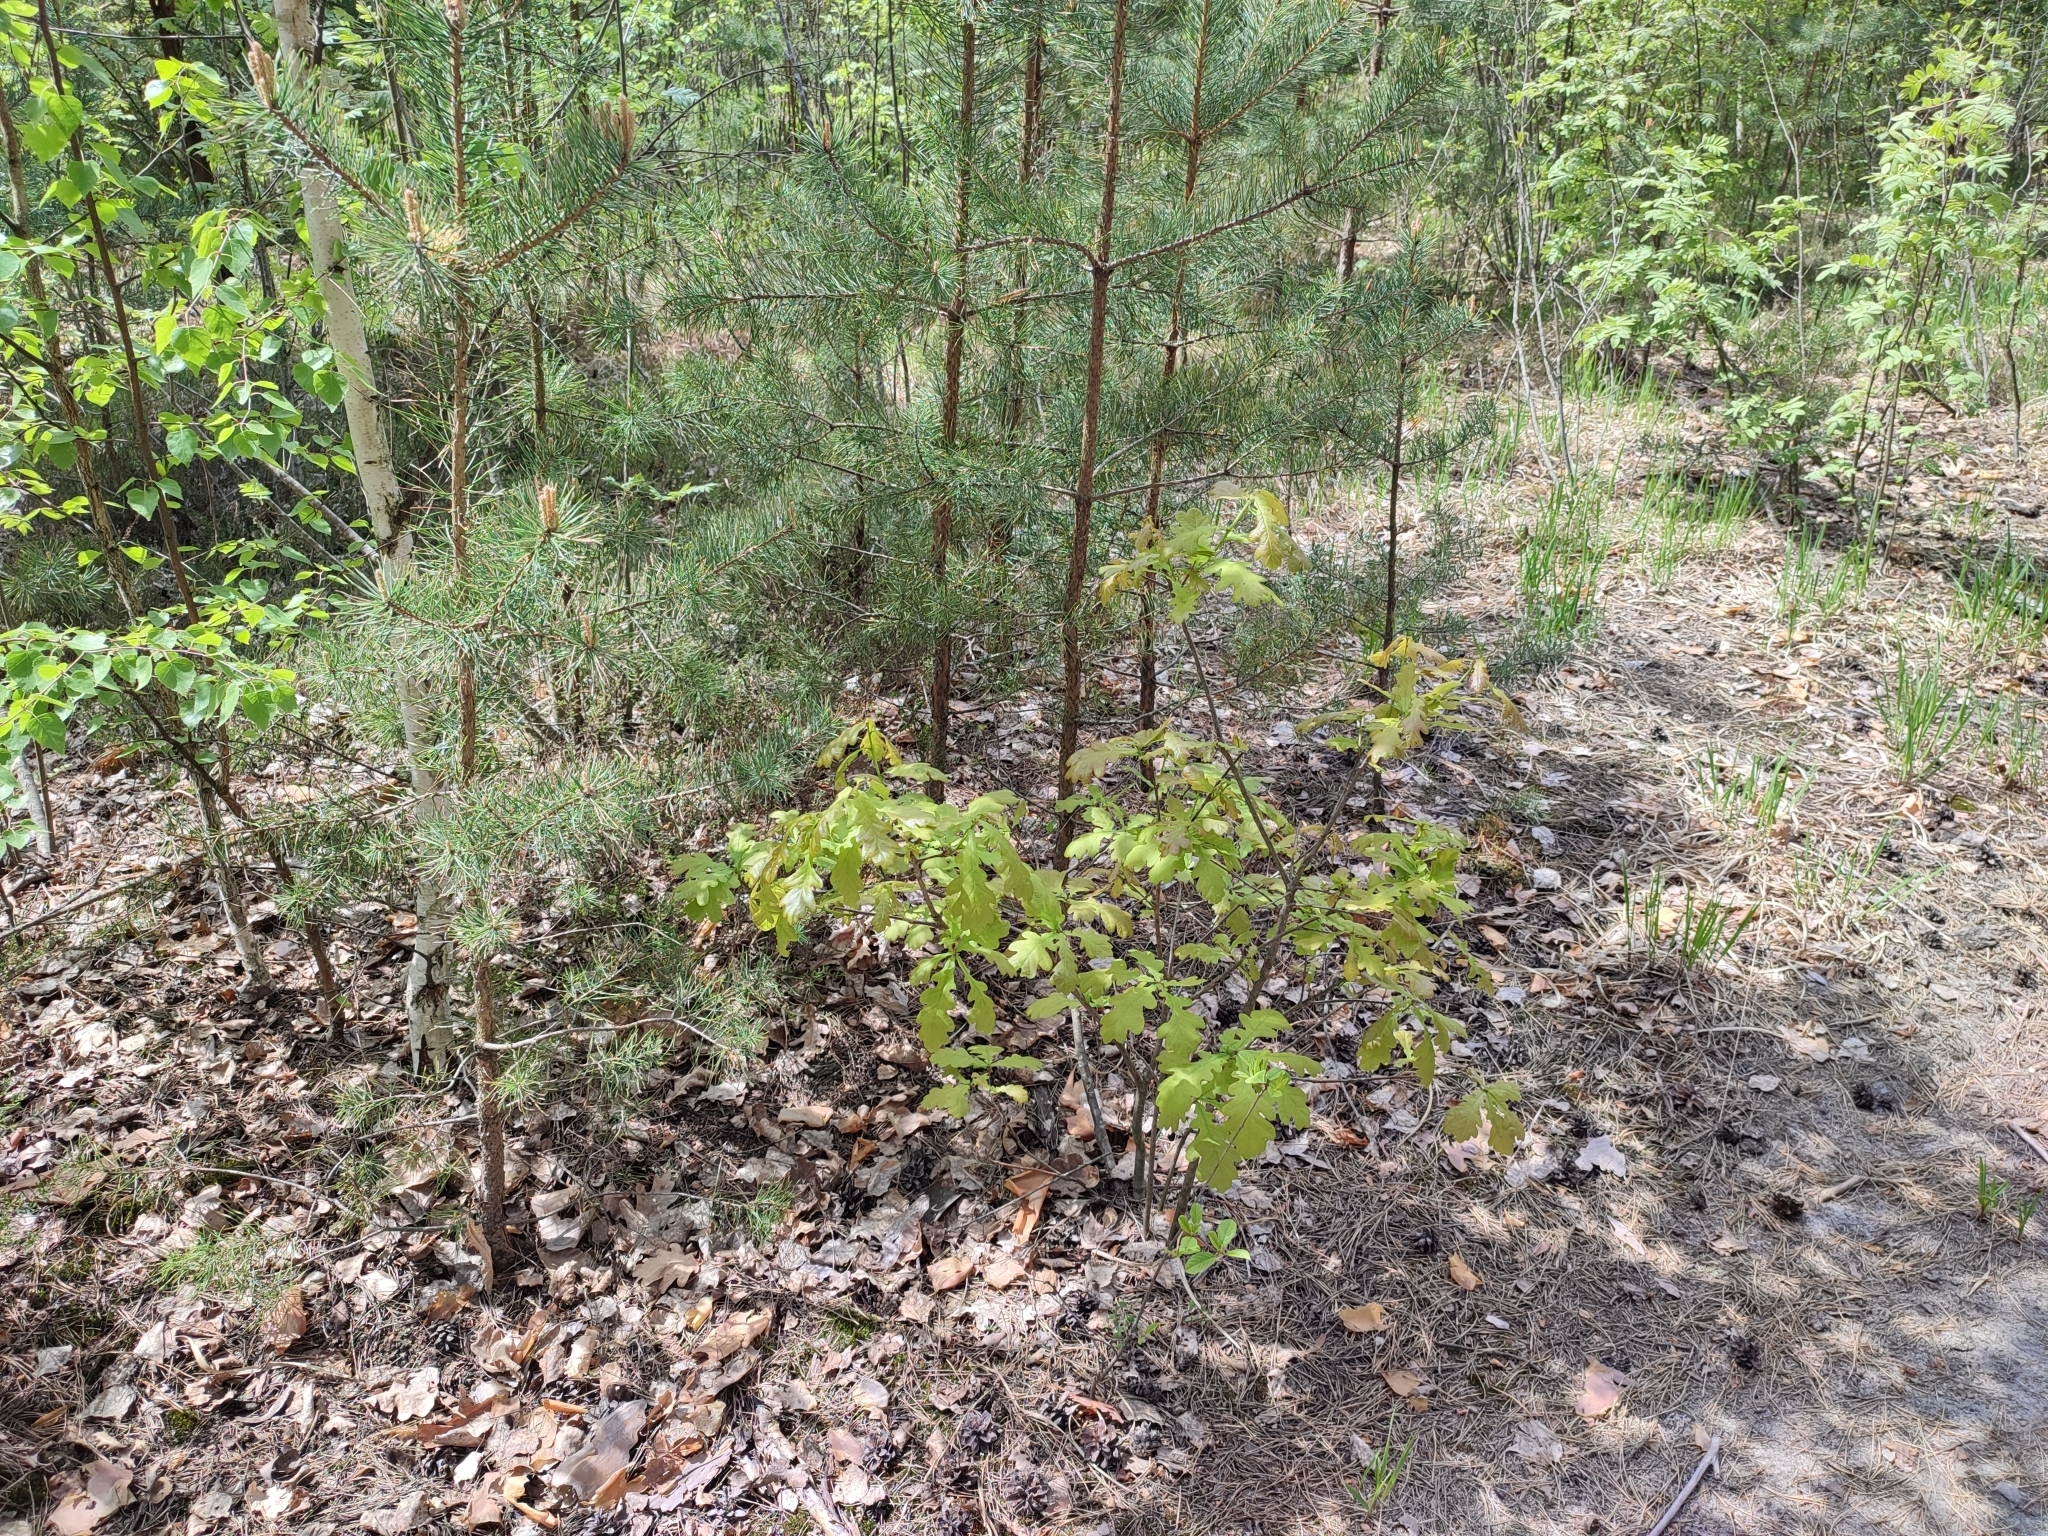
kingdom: Plantae
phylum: Tracheophyta
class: Magnoliopsida
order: Fagales
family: Fagaceae
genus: Quercus
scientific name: Quercus robur
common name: Pedunculate oak
